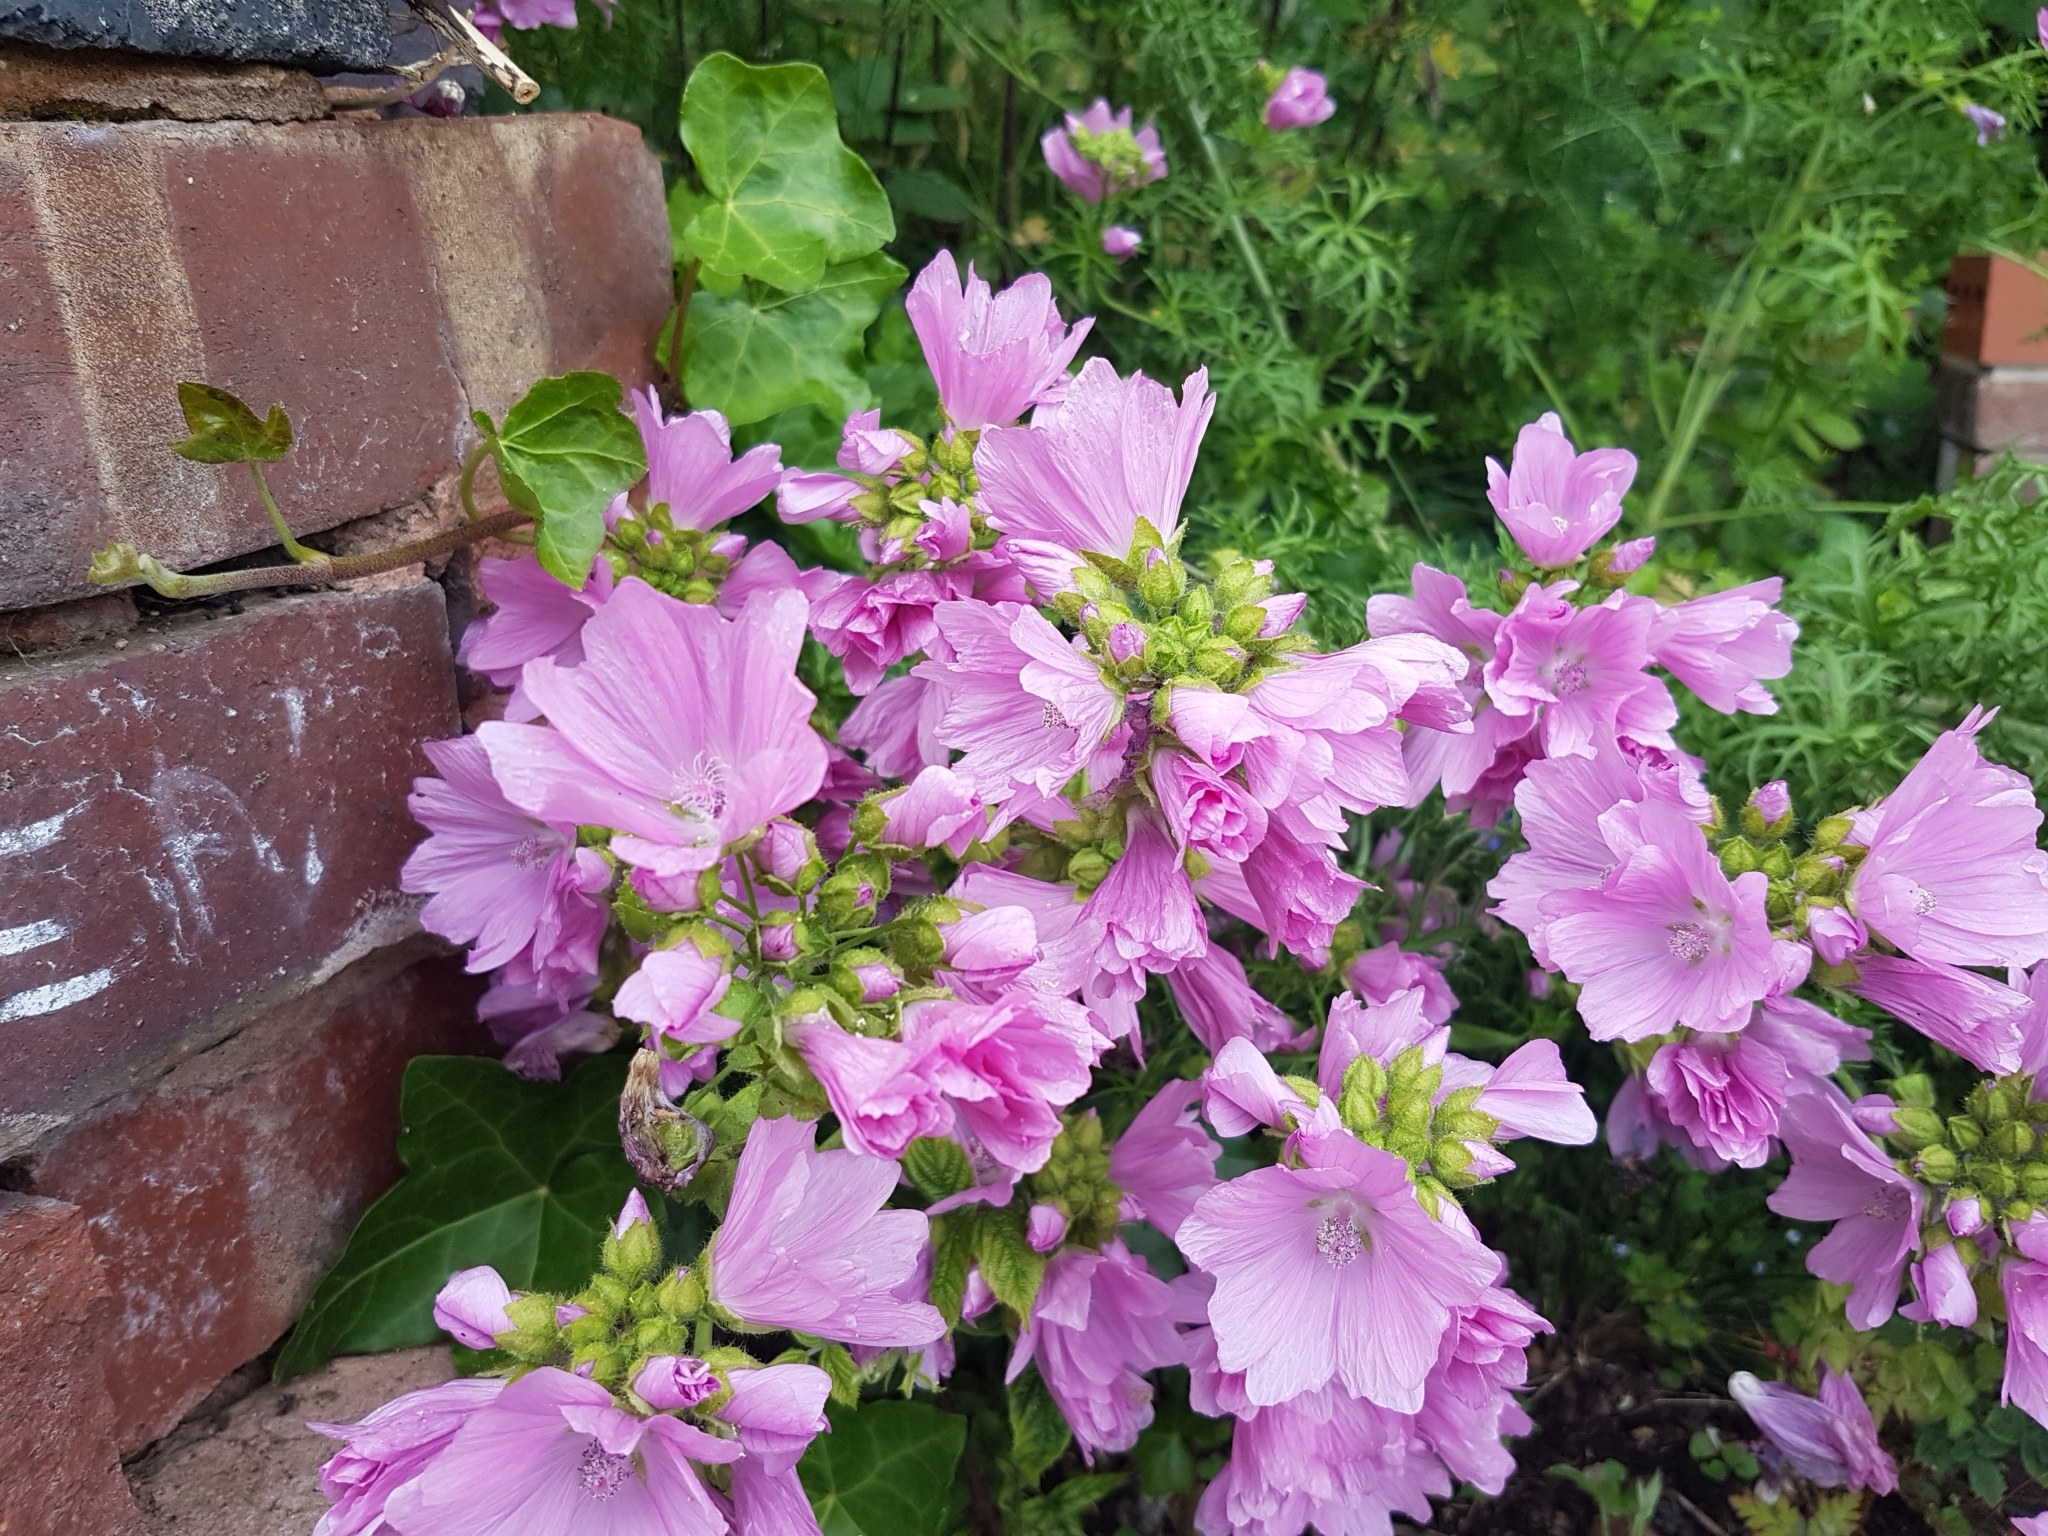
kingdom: Plantae
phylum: Tracheophyta
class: Magnoliopsida
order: Malvales
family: Malvaceae
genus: Malva
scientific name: Malva moschata
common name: Musk mallow
